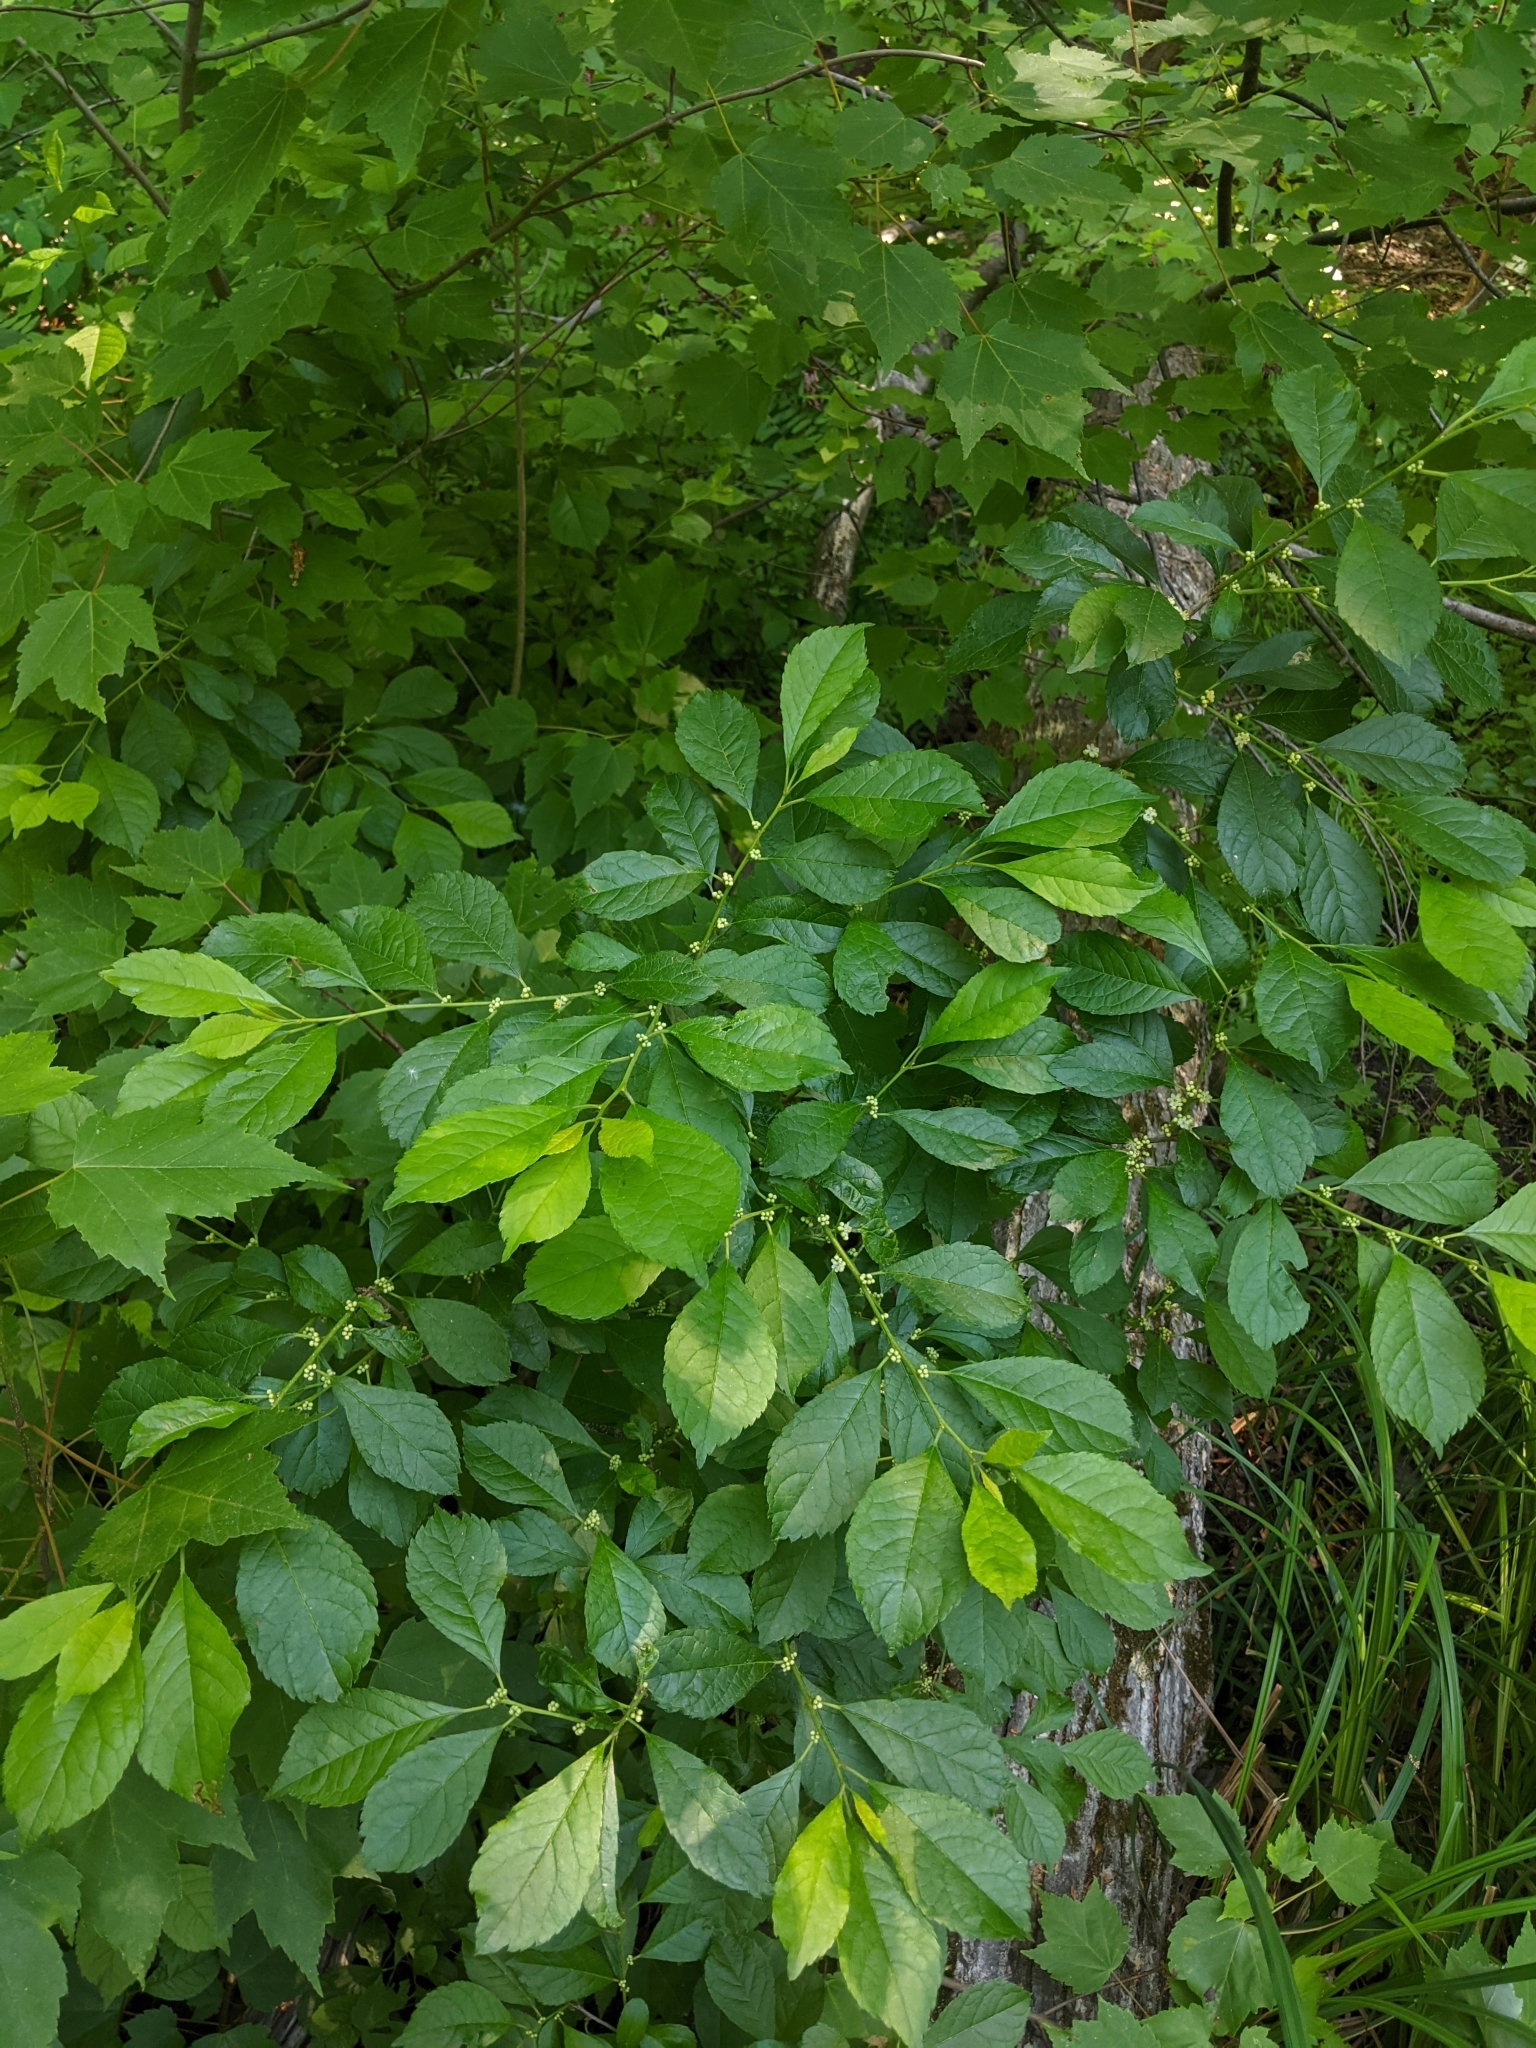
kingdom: Plantae
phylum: Tracheophyta
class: Magnoliopsida
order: Aquifoliales
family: Aquifoliaceae
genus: Ilex
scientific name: Ilex verticillata
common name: Virginia winterberry
